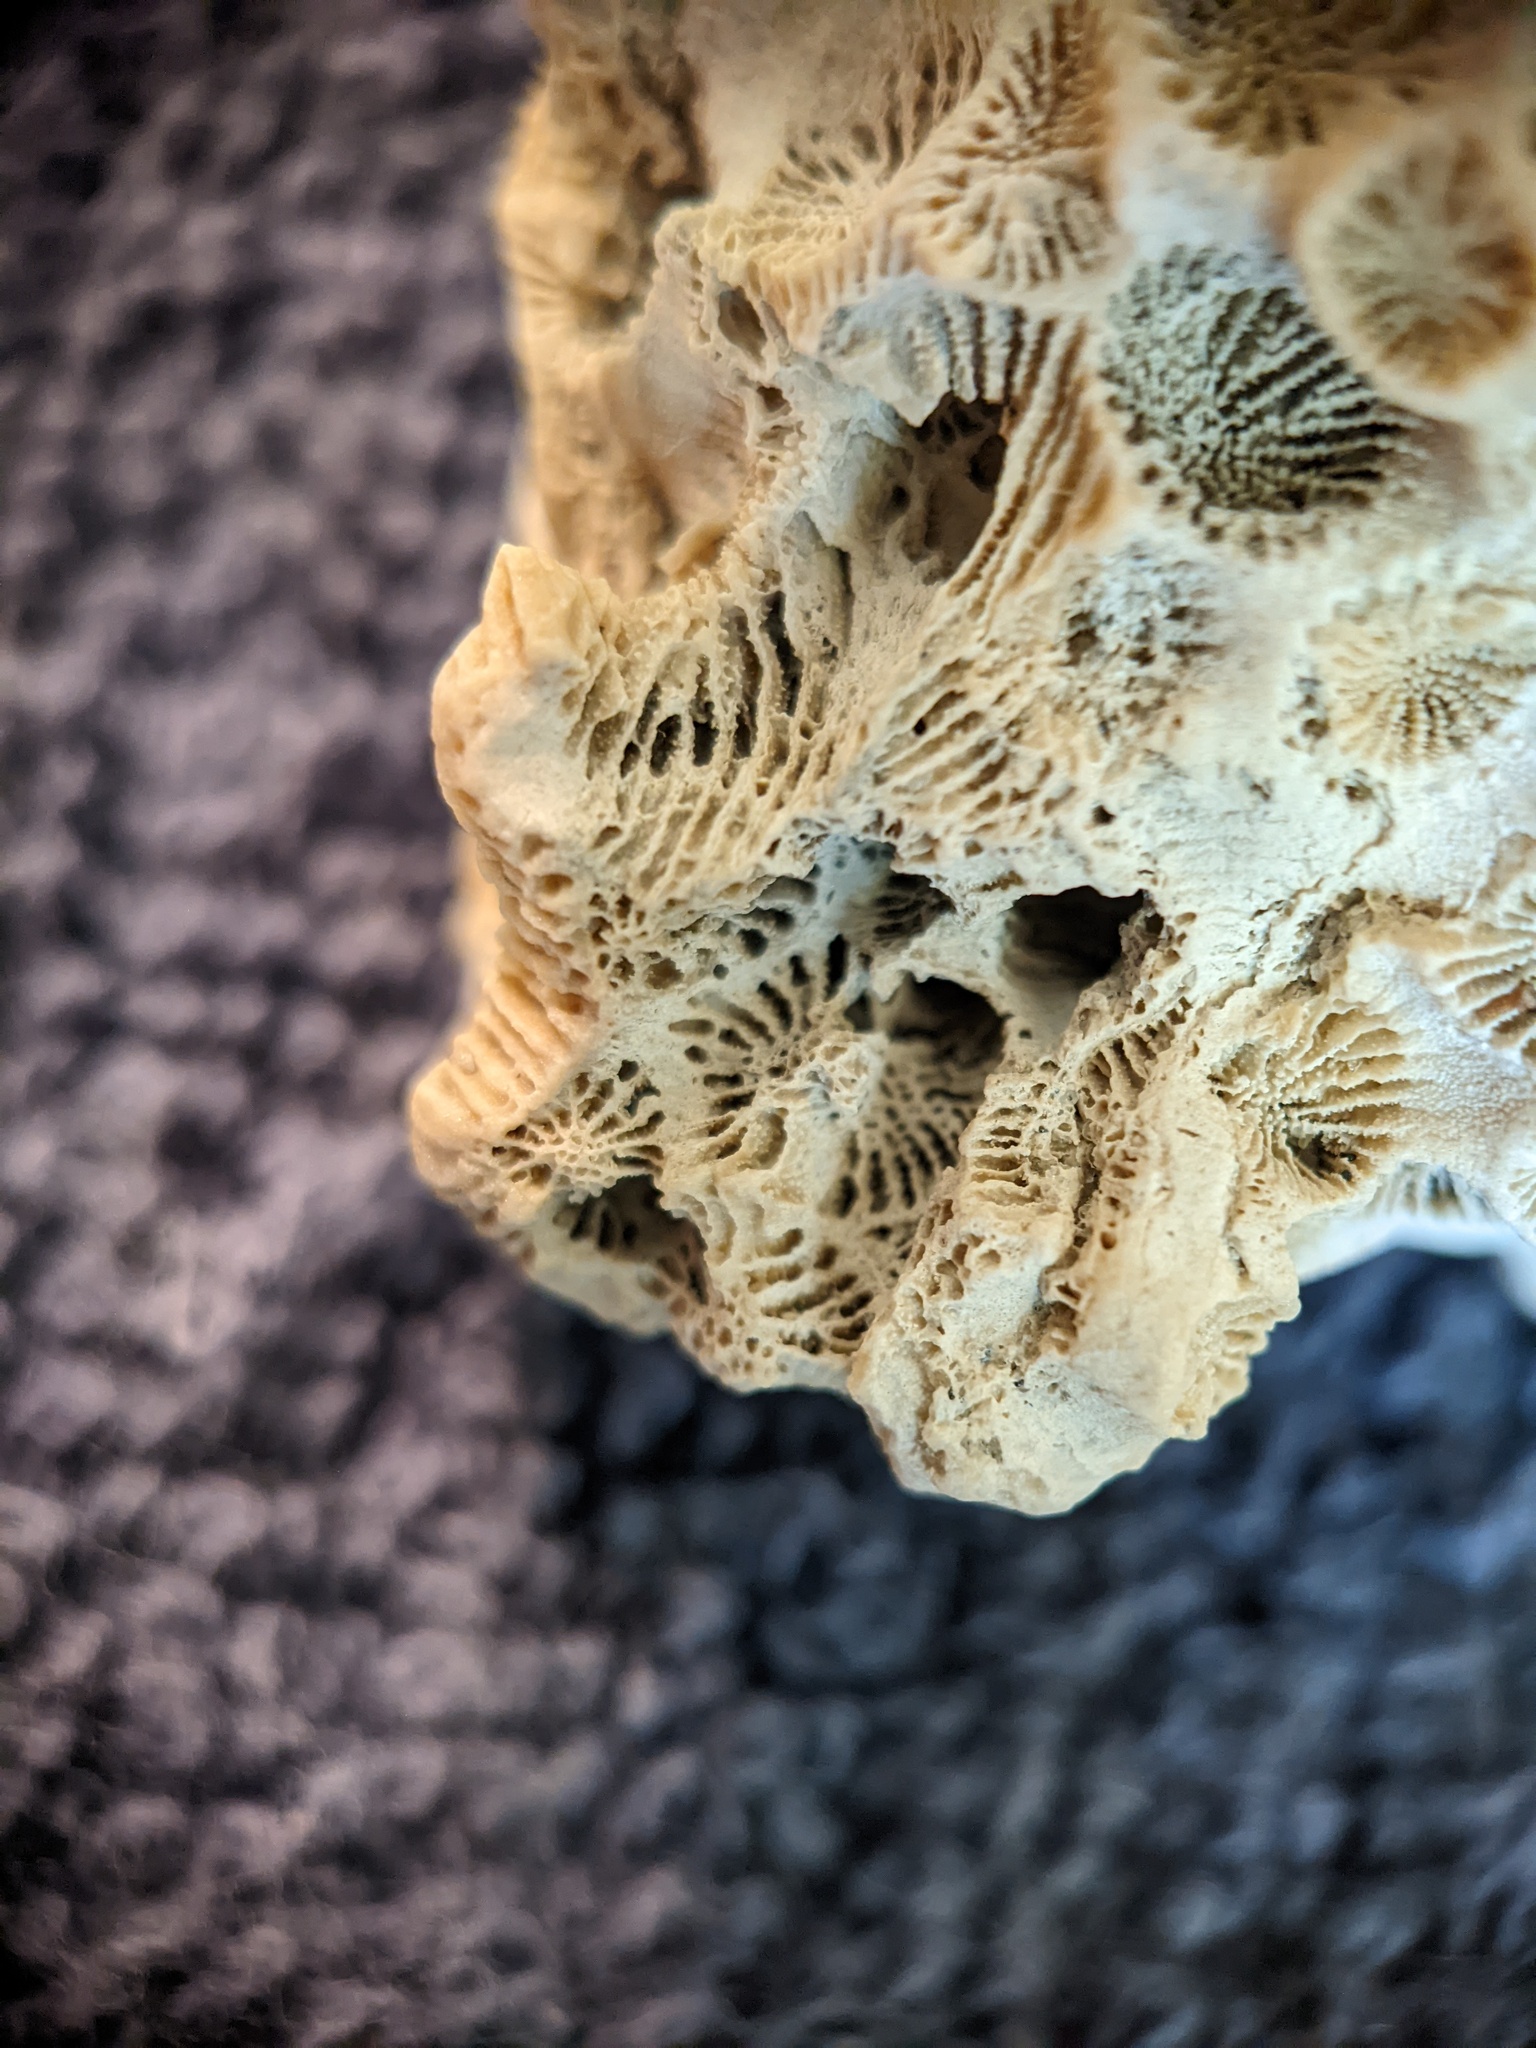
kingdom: Animalia
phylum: Cnidaria
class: Anthozoa
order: Scleractinia
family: Astrangiidae
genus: Astrangia
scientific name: Astrangia poculata
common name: Northern star coral
